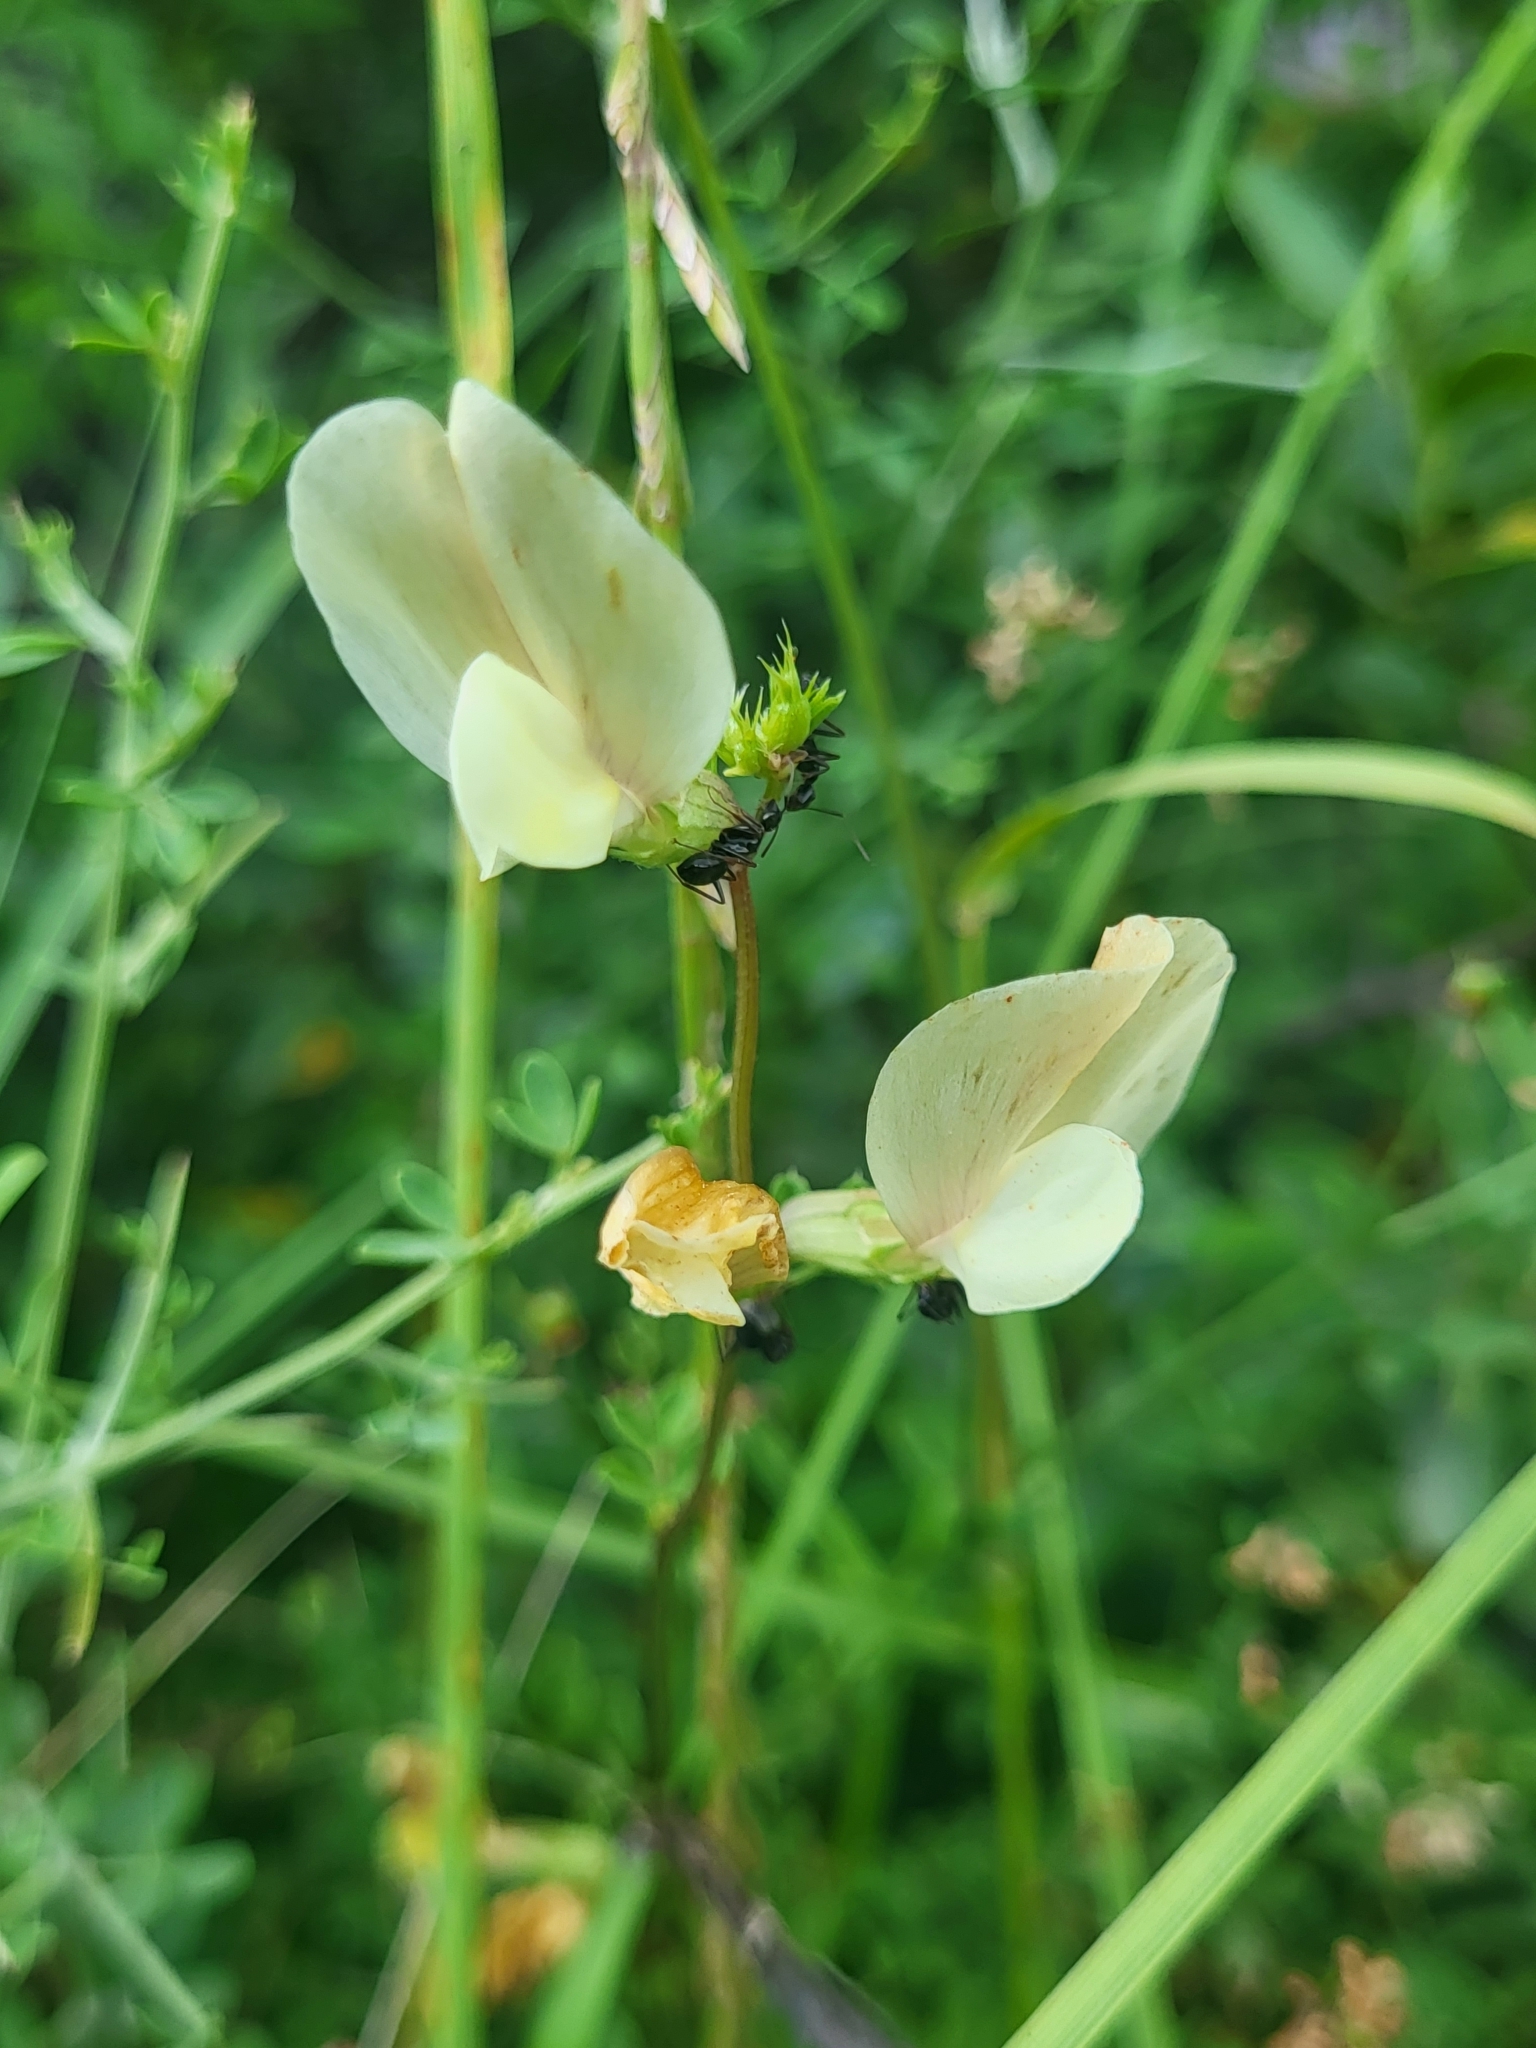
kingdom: Plantae
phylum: Tracheophyta
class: Magnoliopsida
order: Fabales
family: Fabaceae
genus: Vicia
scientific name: Vicia lutea
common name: Smooth yellow vetch
